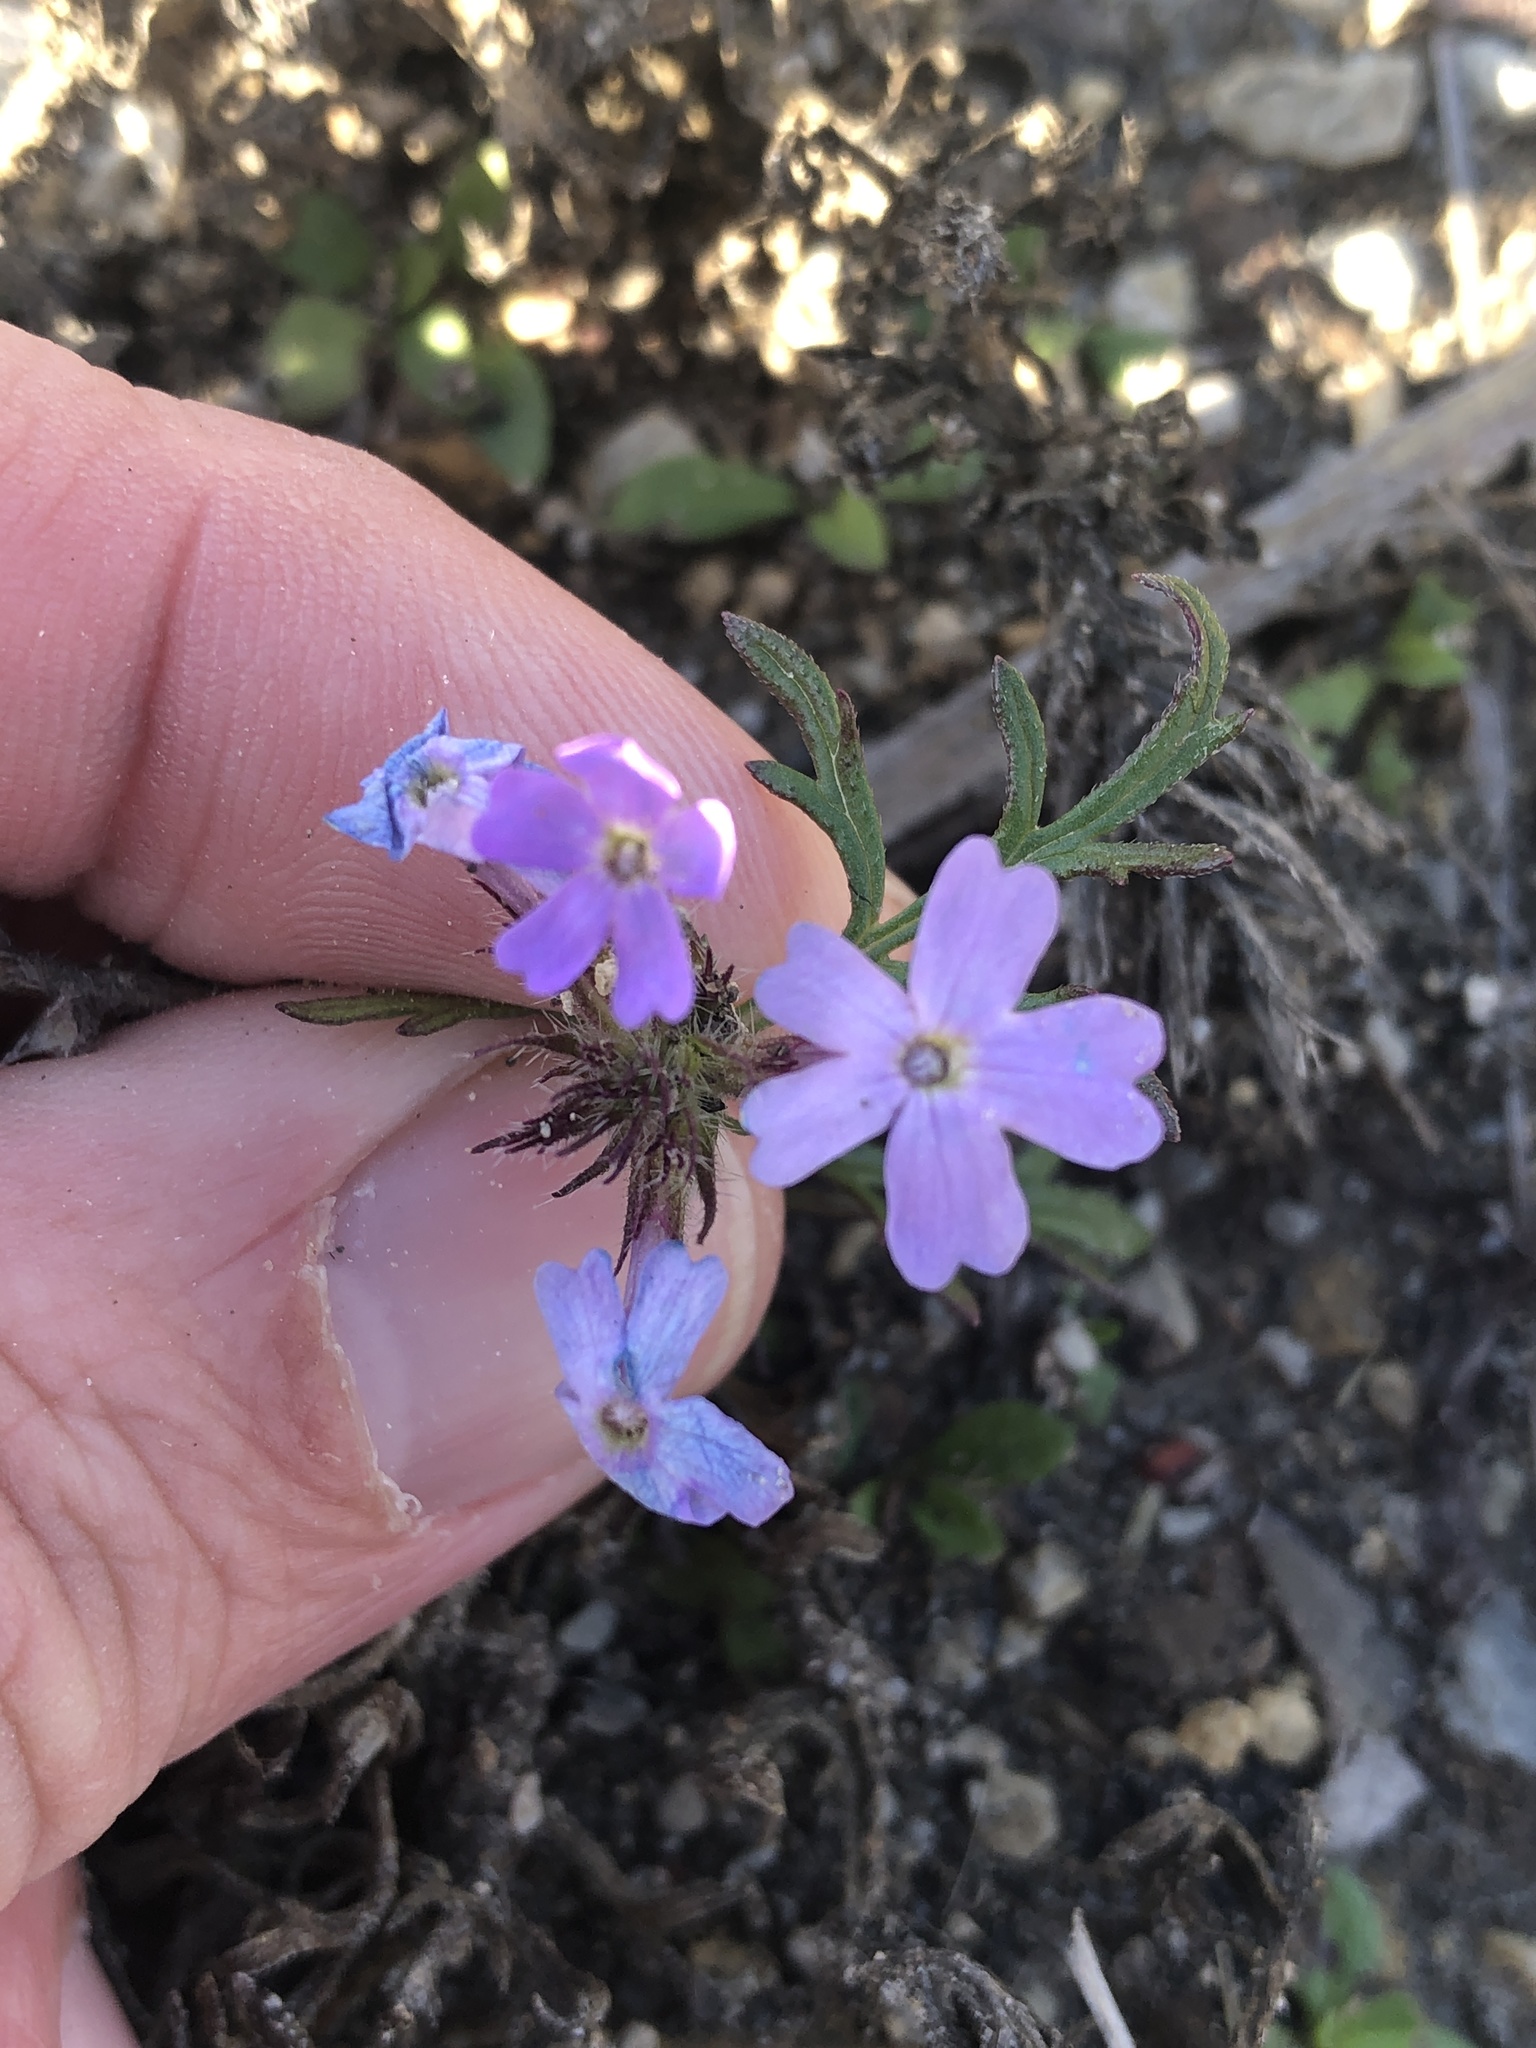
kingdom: Plantae
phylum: Tracheophyta
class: Magnoliopsida
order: Lamiales
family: Verbenaceae
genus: Verbena
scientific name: Verbena bipinnatifida
